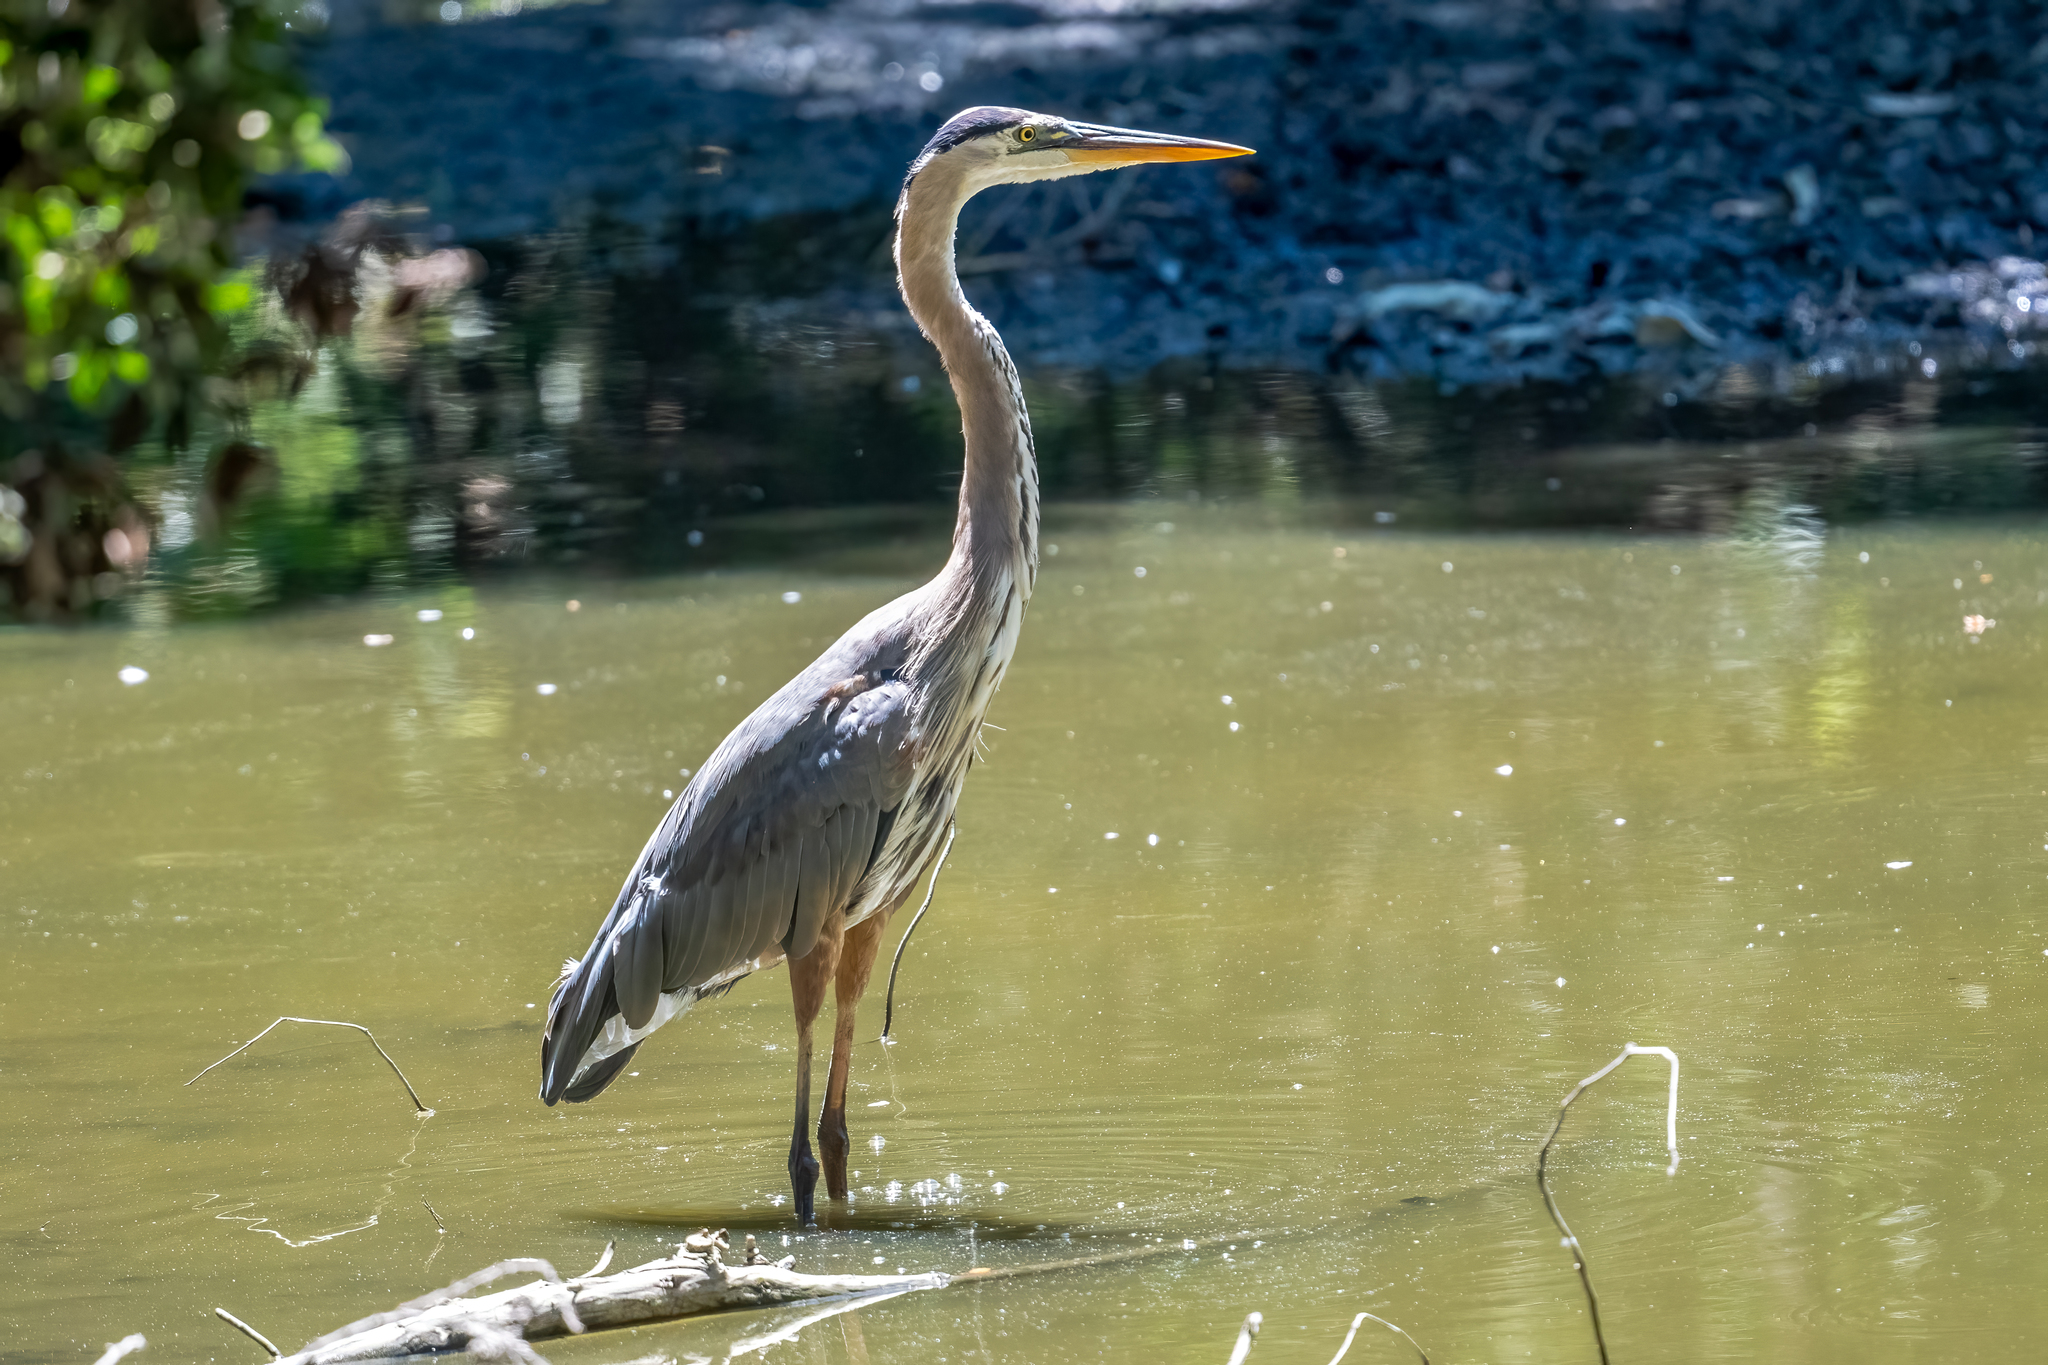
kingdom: Animalia
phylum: Chordata
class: Aves
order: Pelecaniformes
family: Ardeidae
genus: Ardea
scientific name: Ardea herodias
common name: Great blue heron
